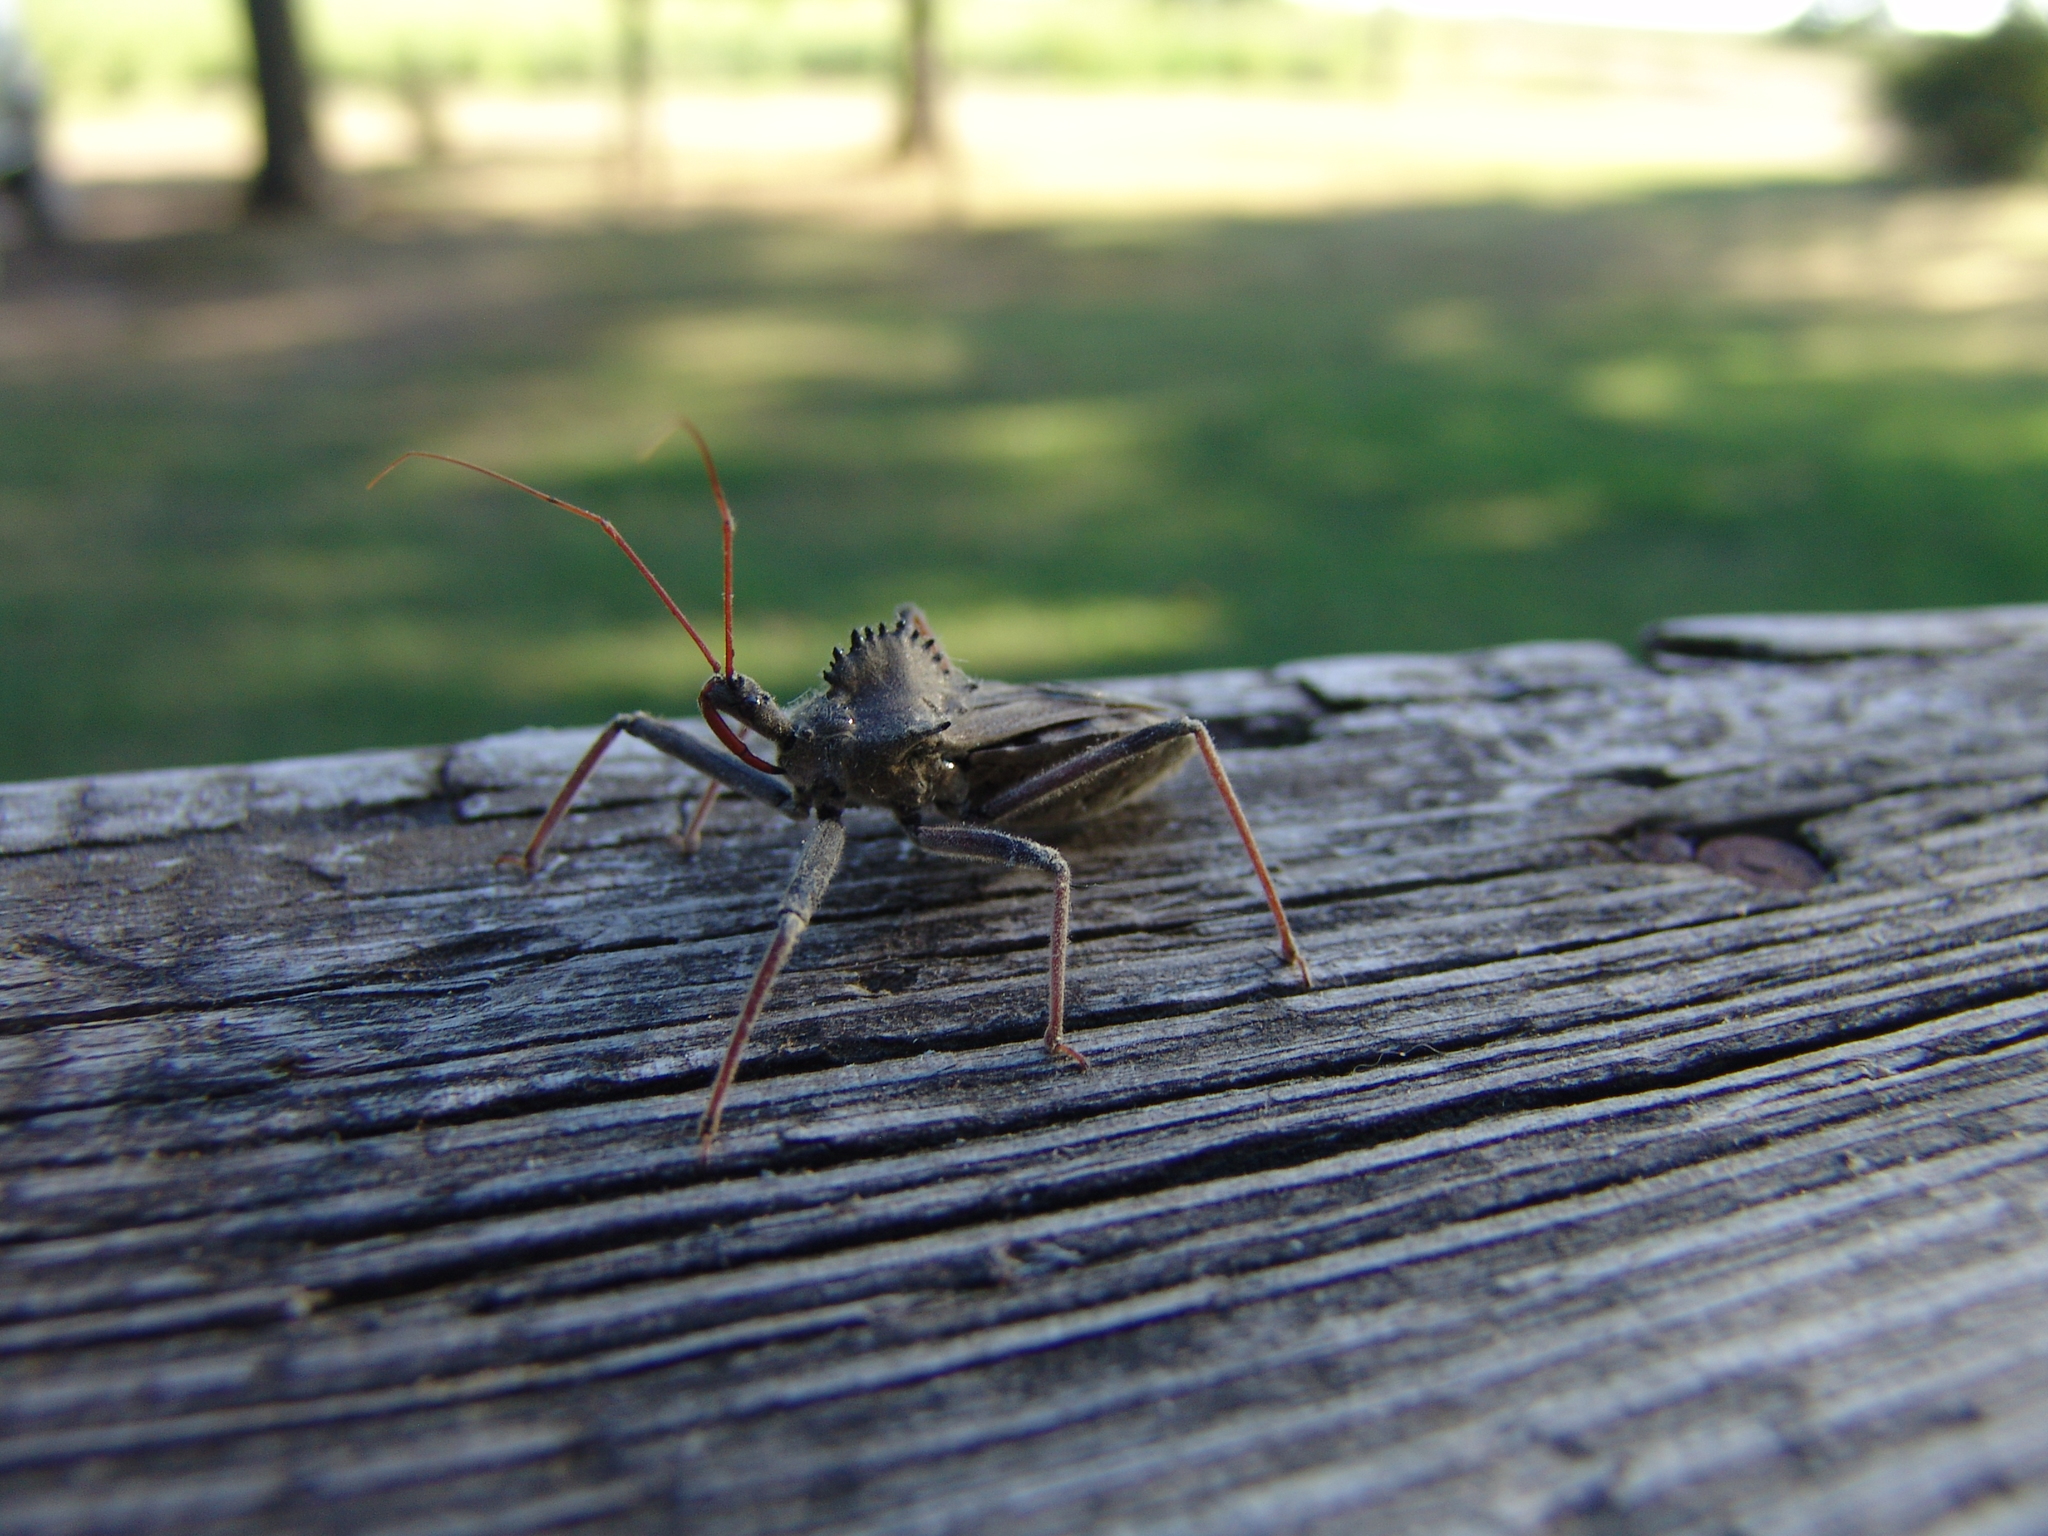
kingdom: Animalia
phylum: Arthropoda
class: Insecta
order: Hemiptera
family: Reduviidae
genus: Arilus
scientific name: Arilus cristatus
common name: North american wheel bug
